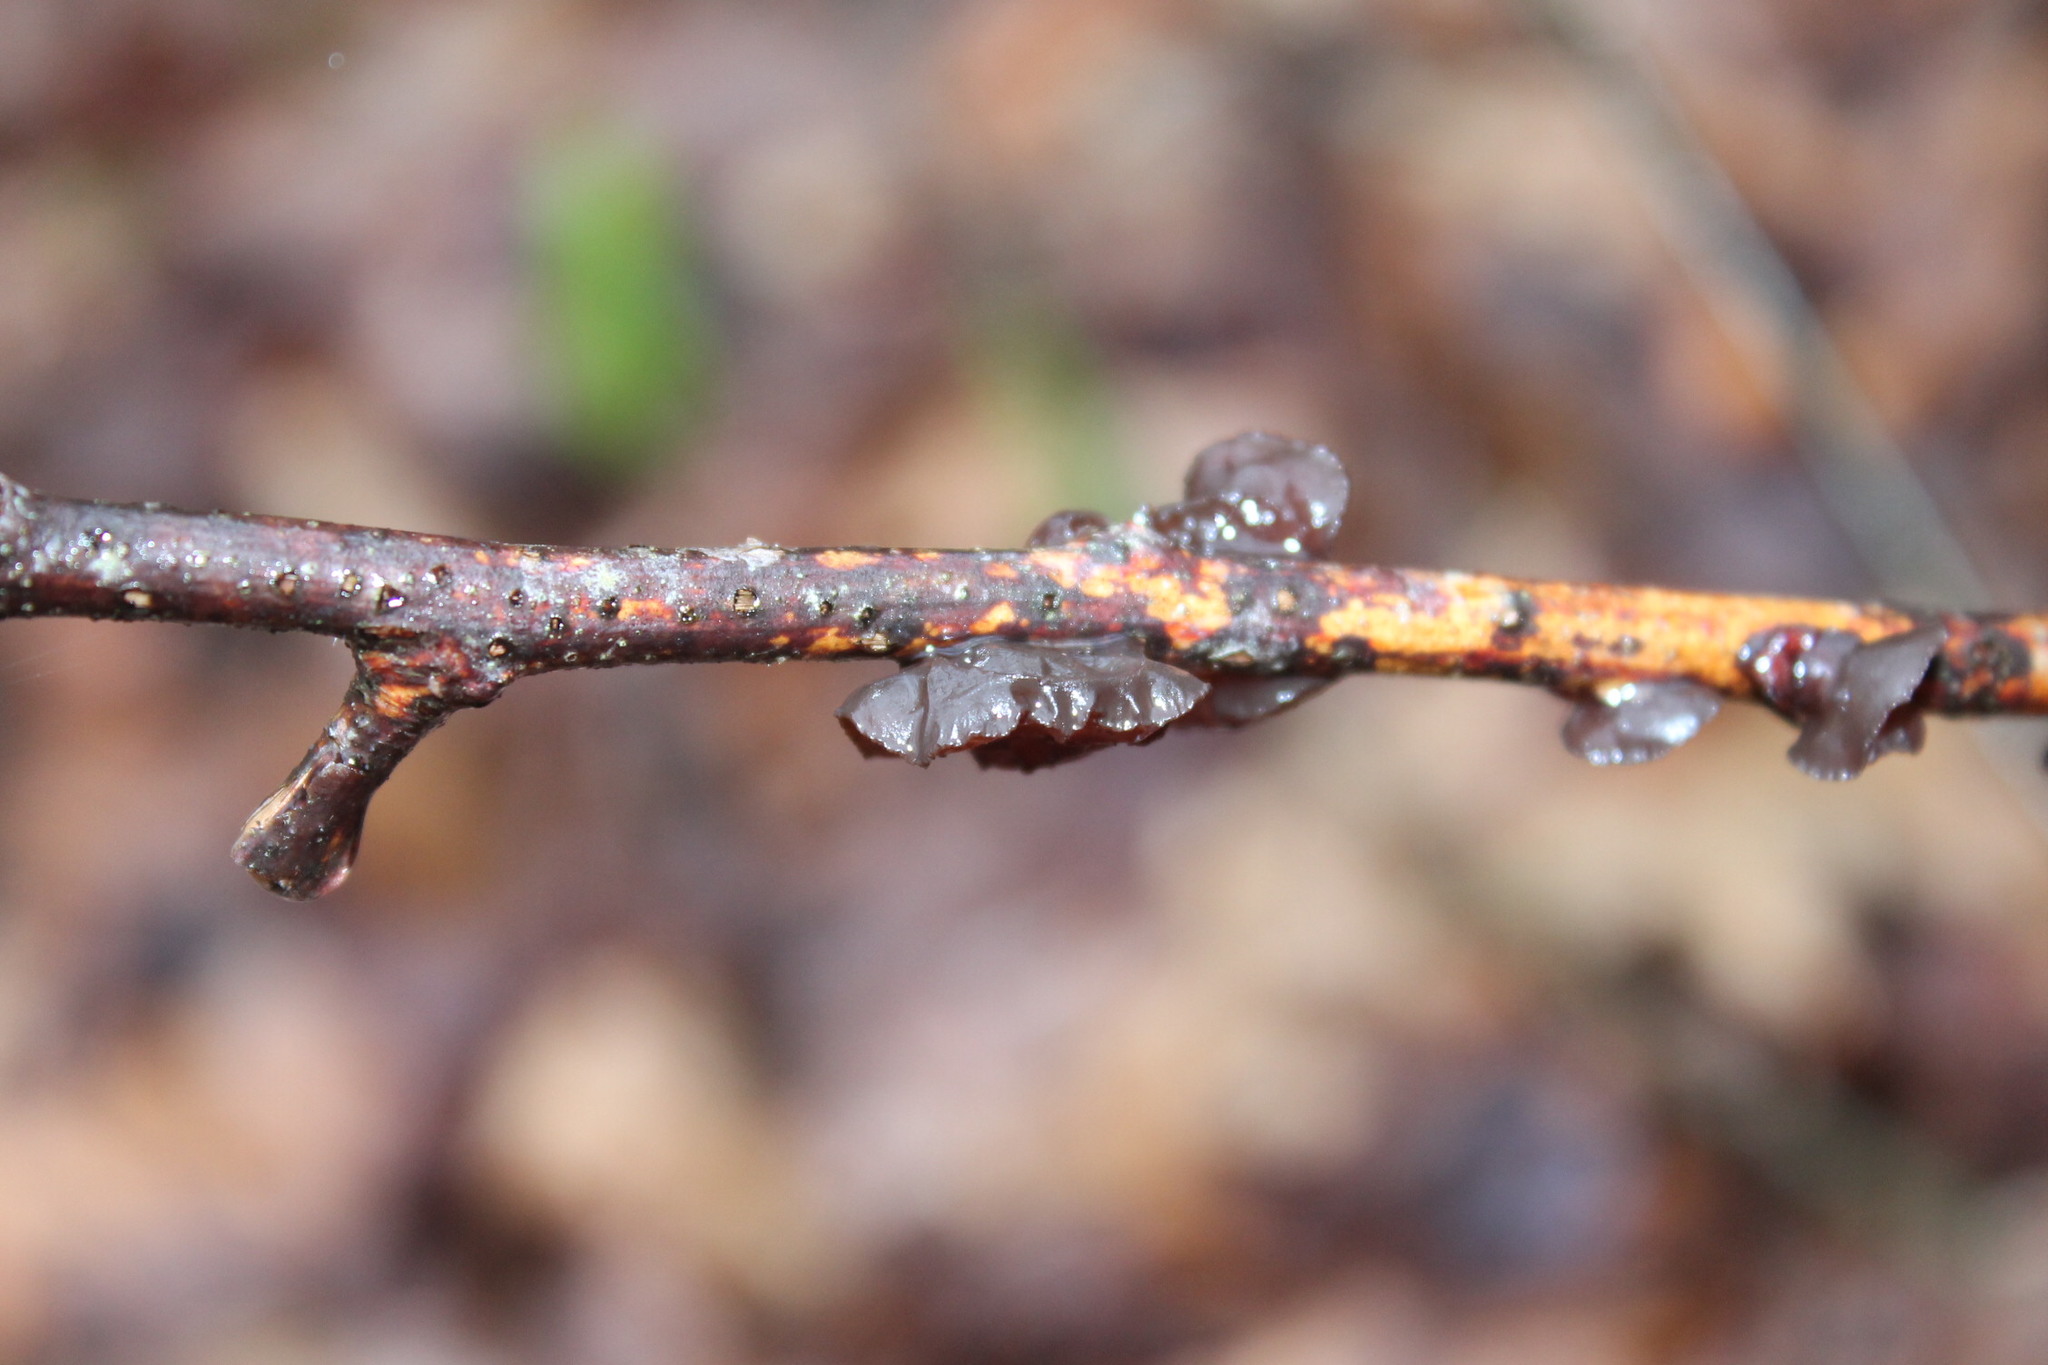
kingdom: Fungi
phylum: Basidiomycota
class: Agaricomycetes
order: Auriculariales
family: Auriculariaceae
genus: Exidia
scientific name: Exidia
